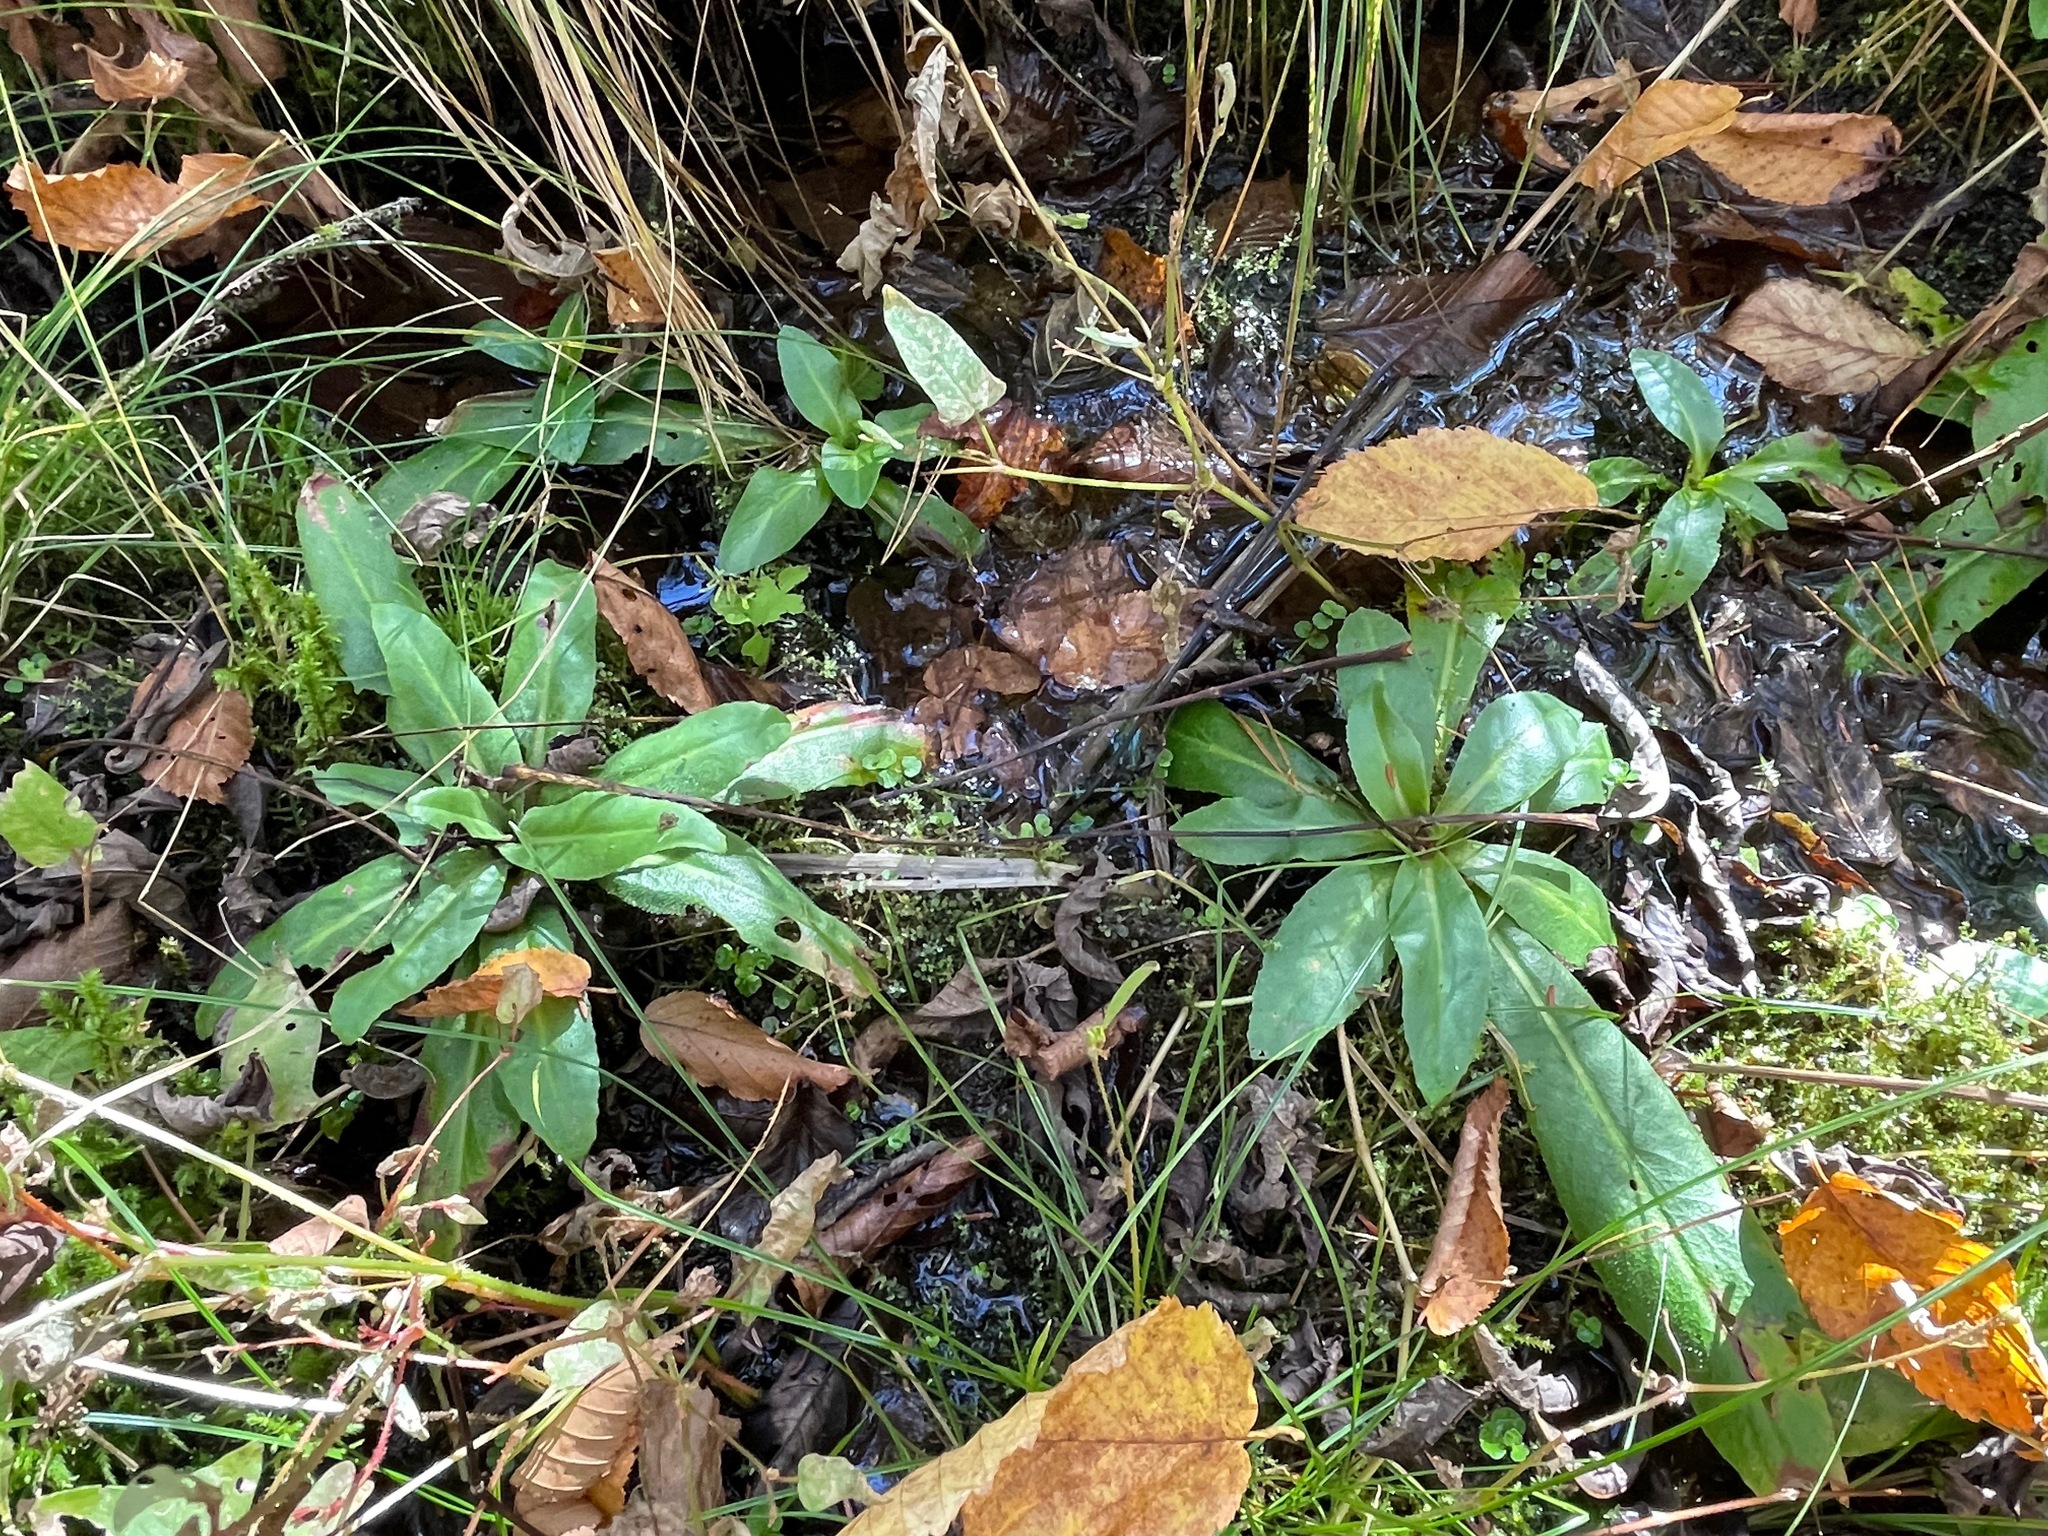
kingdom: Plantae
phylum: Tracheophyta
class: Magnoliopsida
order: Saxifragales
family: Saxifragaceae
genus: Micranthes
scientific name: Micranthes pensylvanica
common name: Marsh saxifrage
